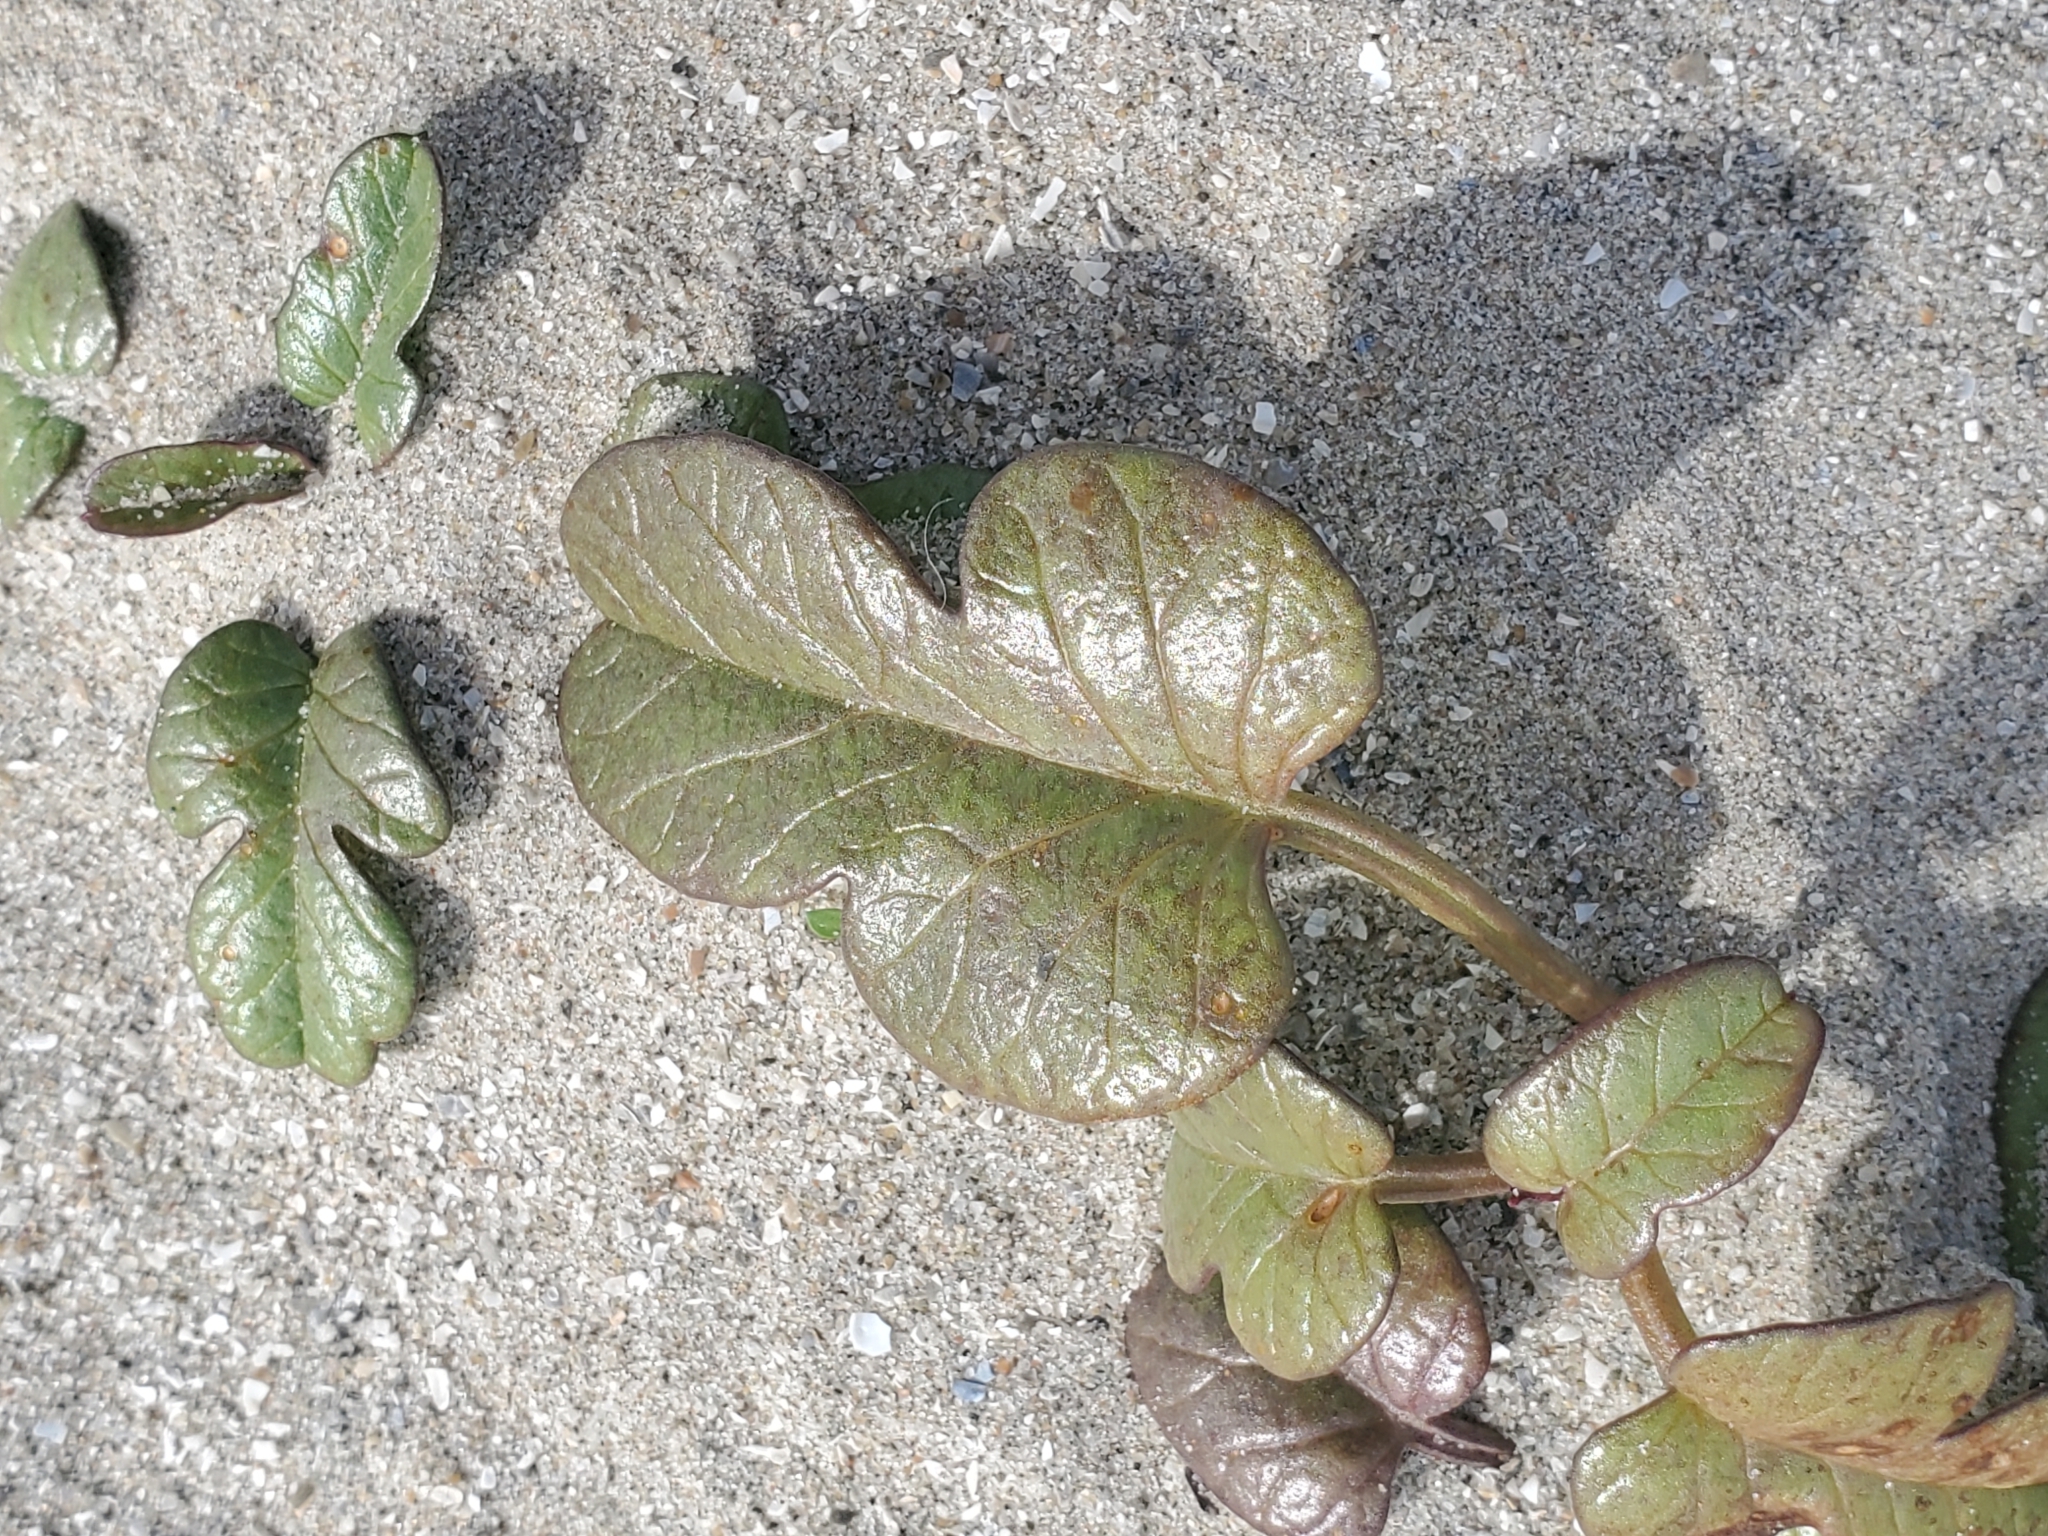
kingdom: Plantae
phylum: Tracheophyta
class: Magnoliopsida
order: Solanales
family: Convolvulaceae
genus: Ipomoea
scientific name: Ipomoea imperati
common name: Fiddle-leaf morning-glory
